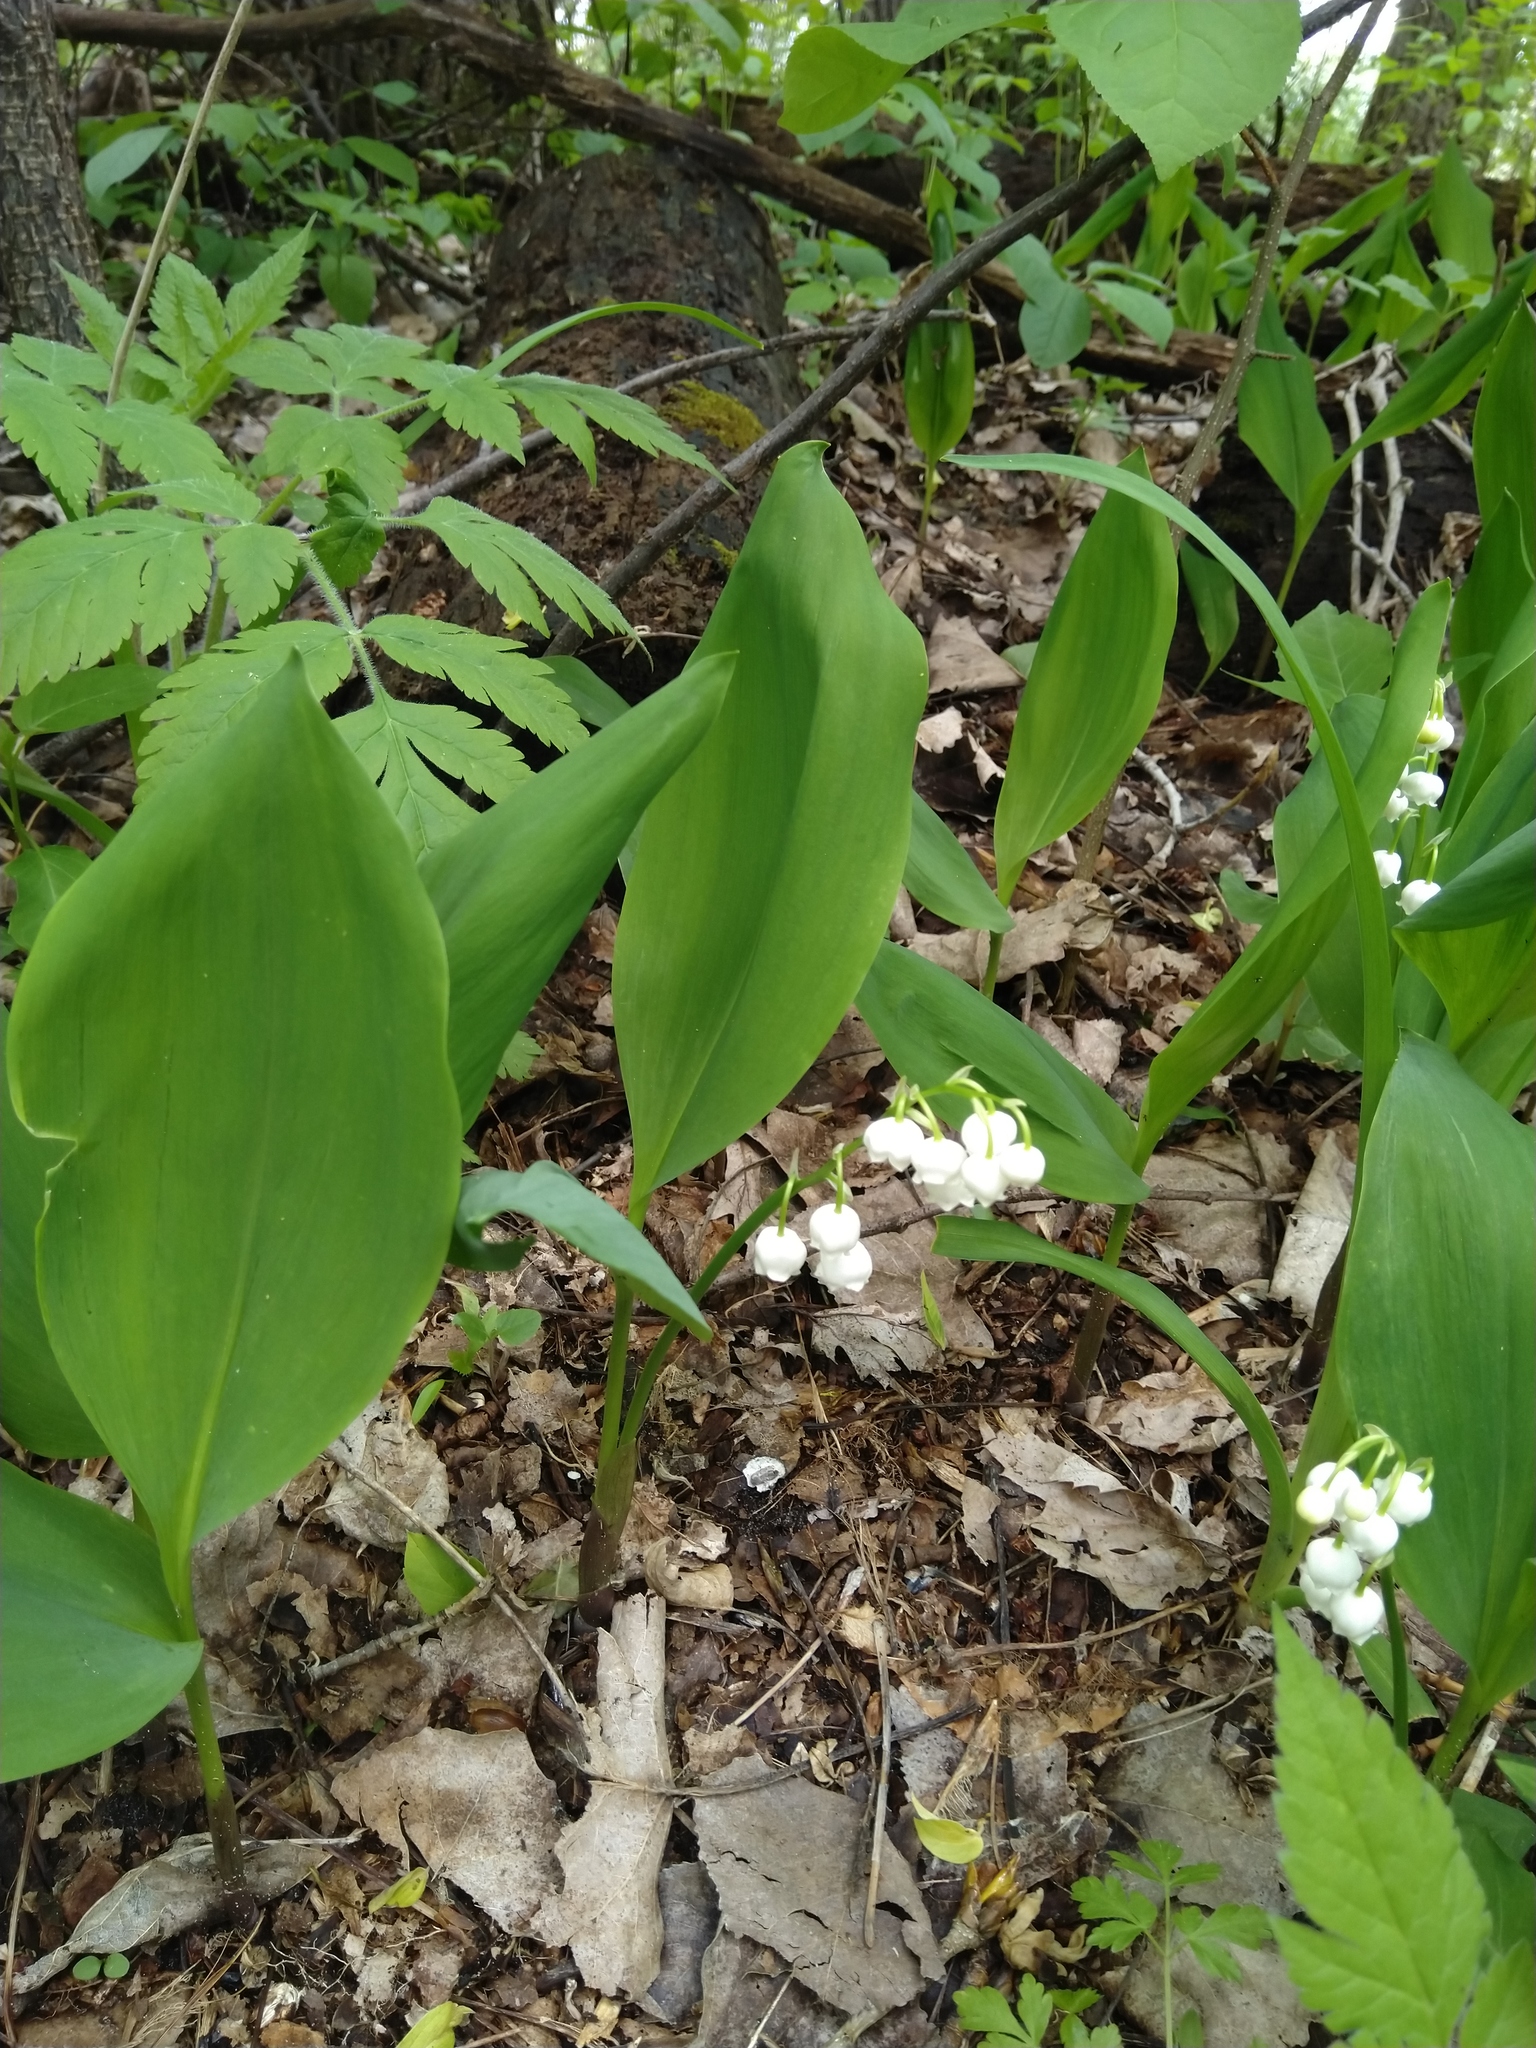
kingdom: Plantae
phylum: Tracheophyta
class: Liliopsida
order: Asparagales
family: Asparagaceae
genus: Convallaria
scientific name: Convallaria majalis
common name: Lily-of-the-valley
